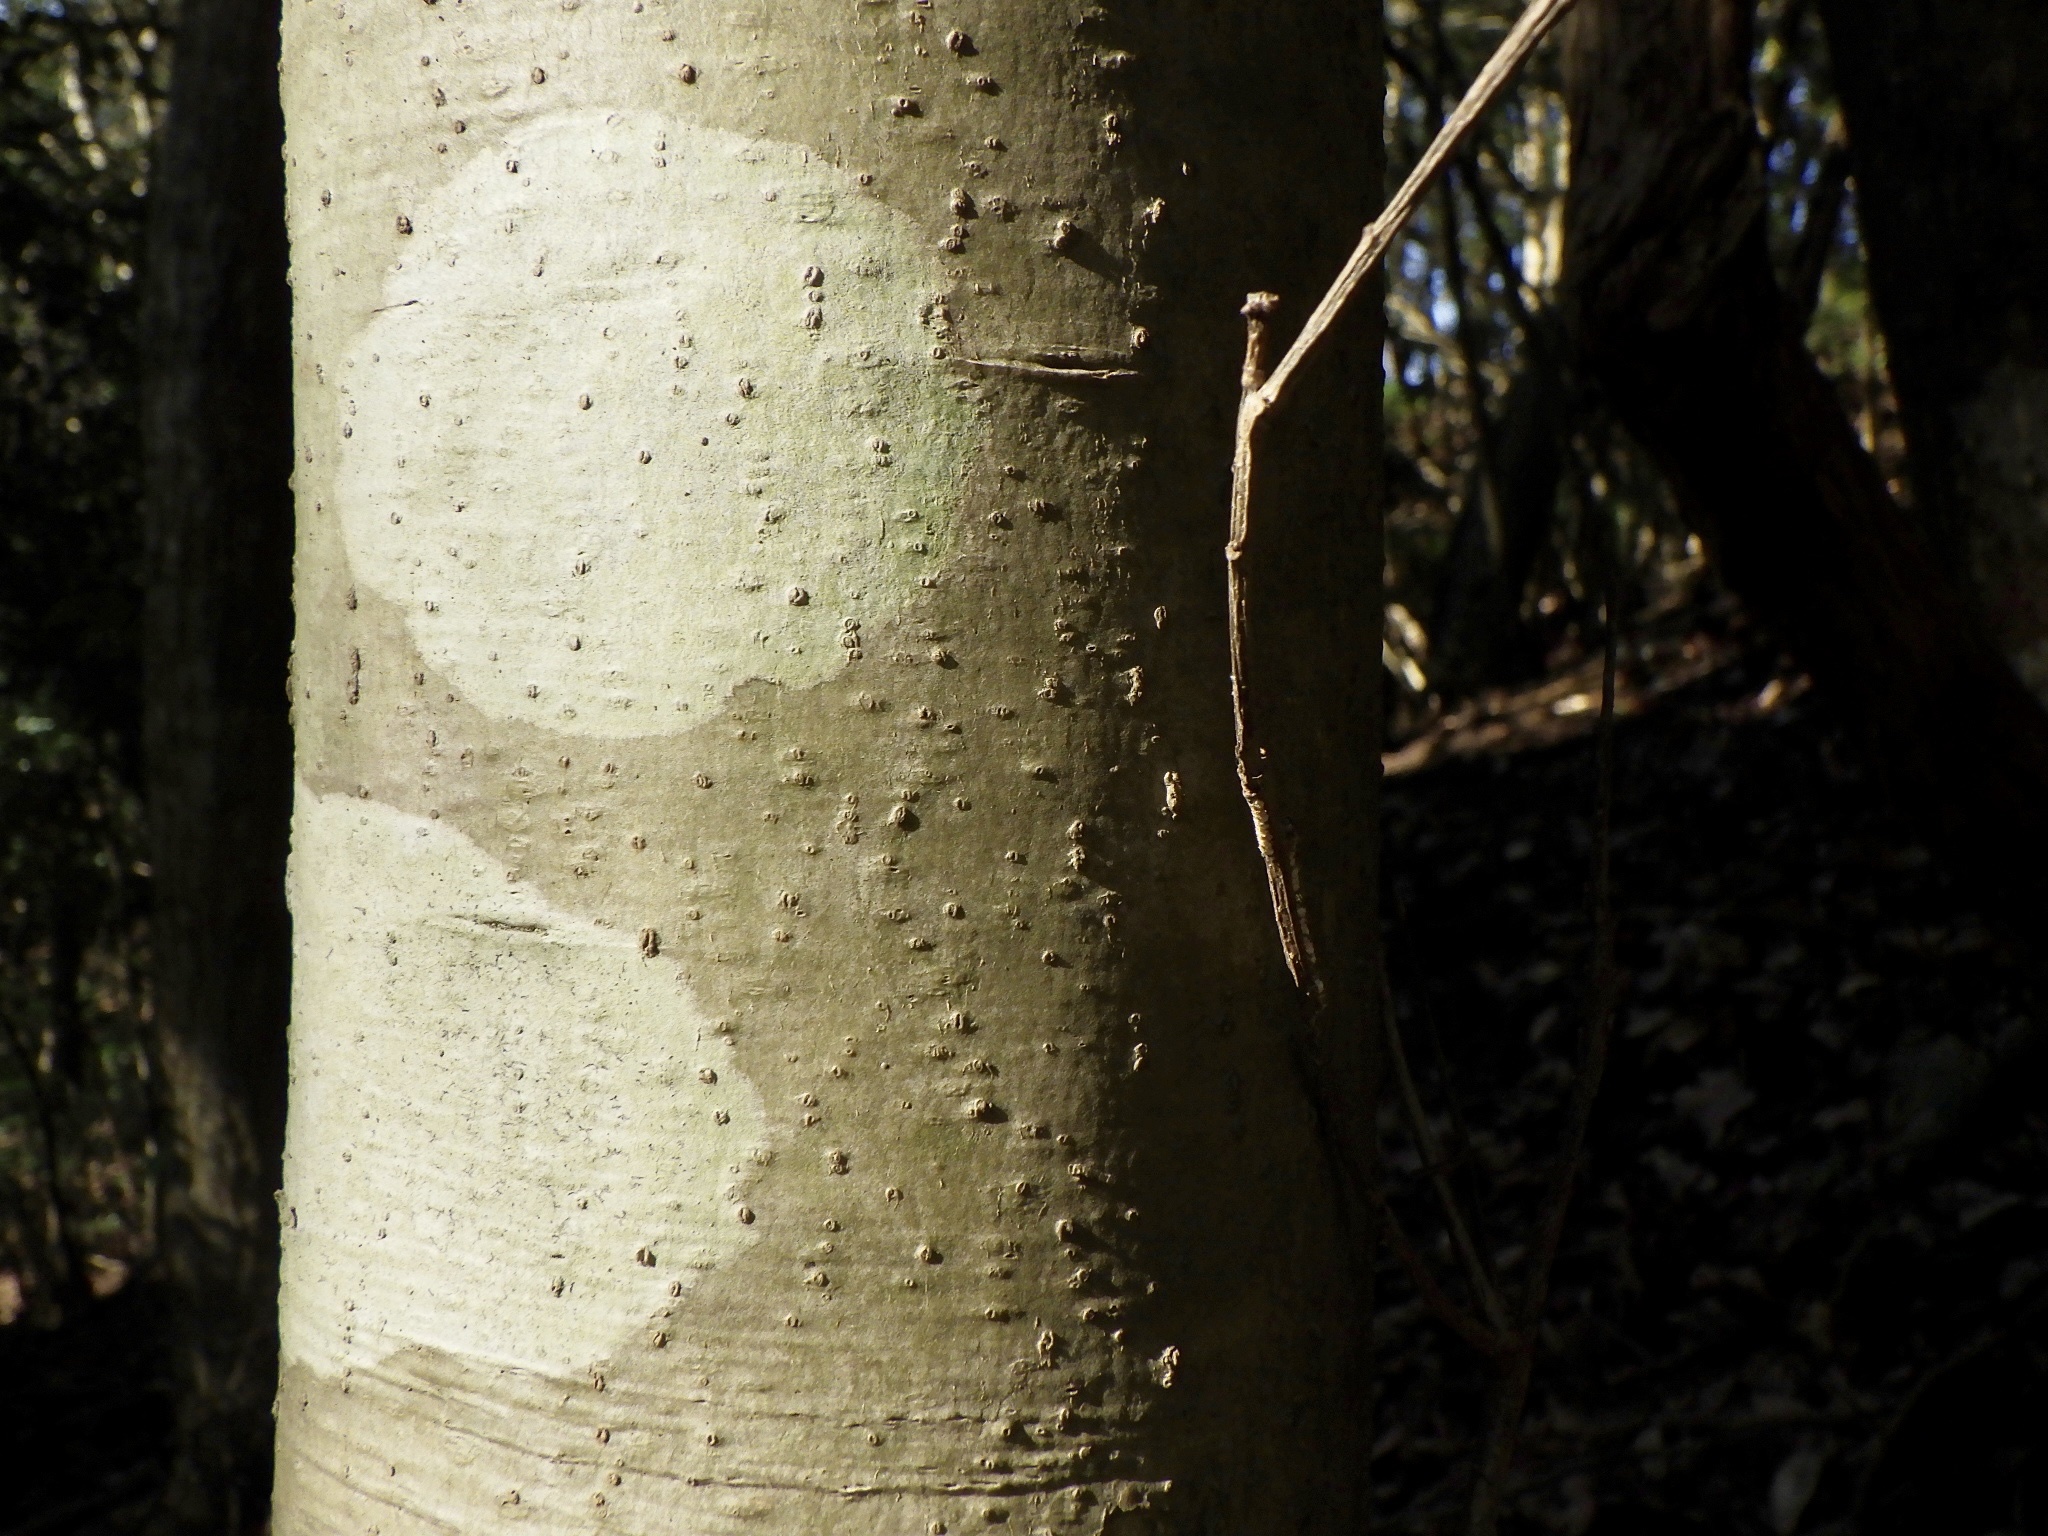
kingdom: Plantae
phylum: Tracheophyta
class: Magnoliopsida
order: Aquifoliales
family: Aquifoliaceae
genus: Ilex
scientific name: Ilex pedunculosa
